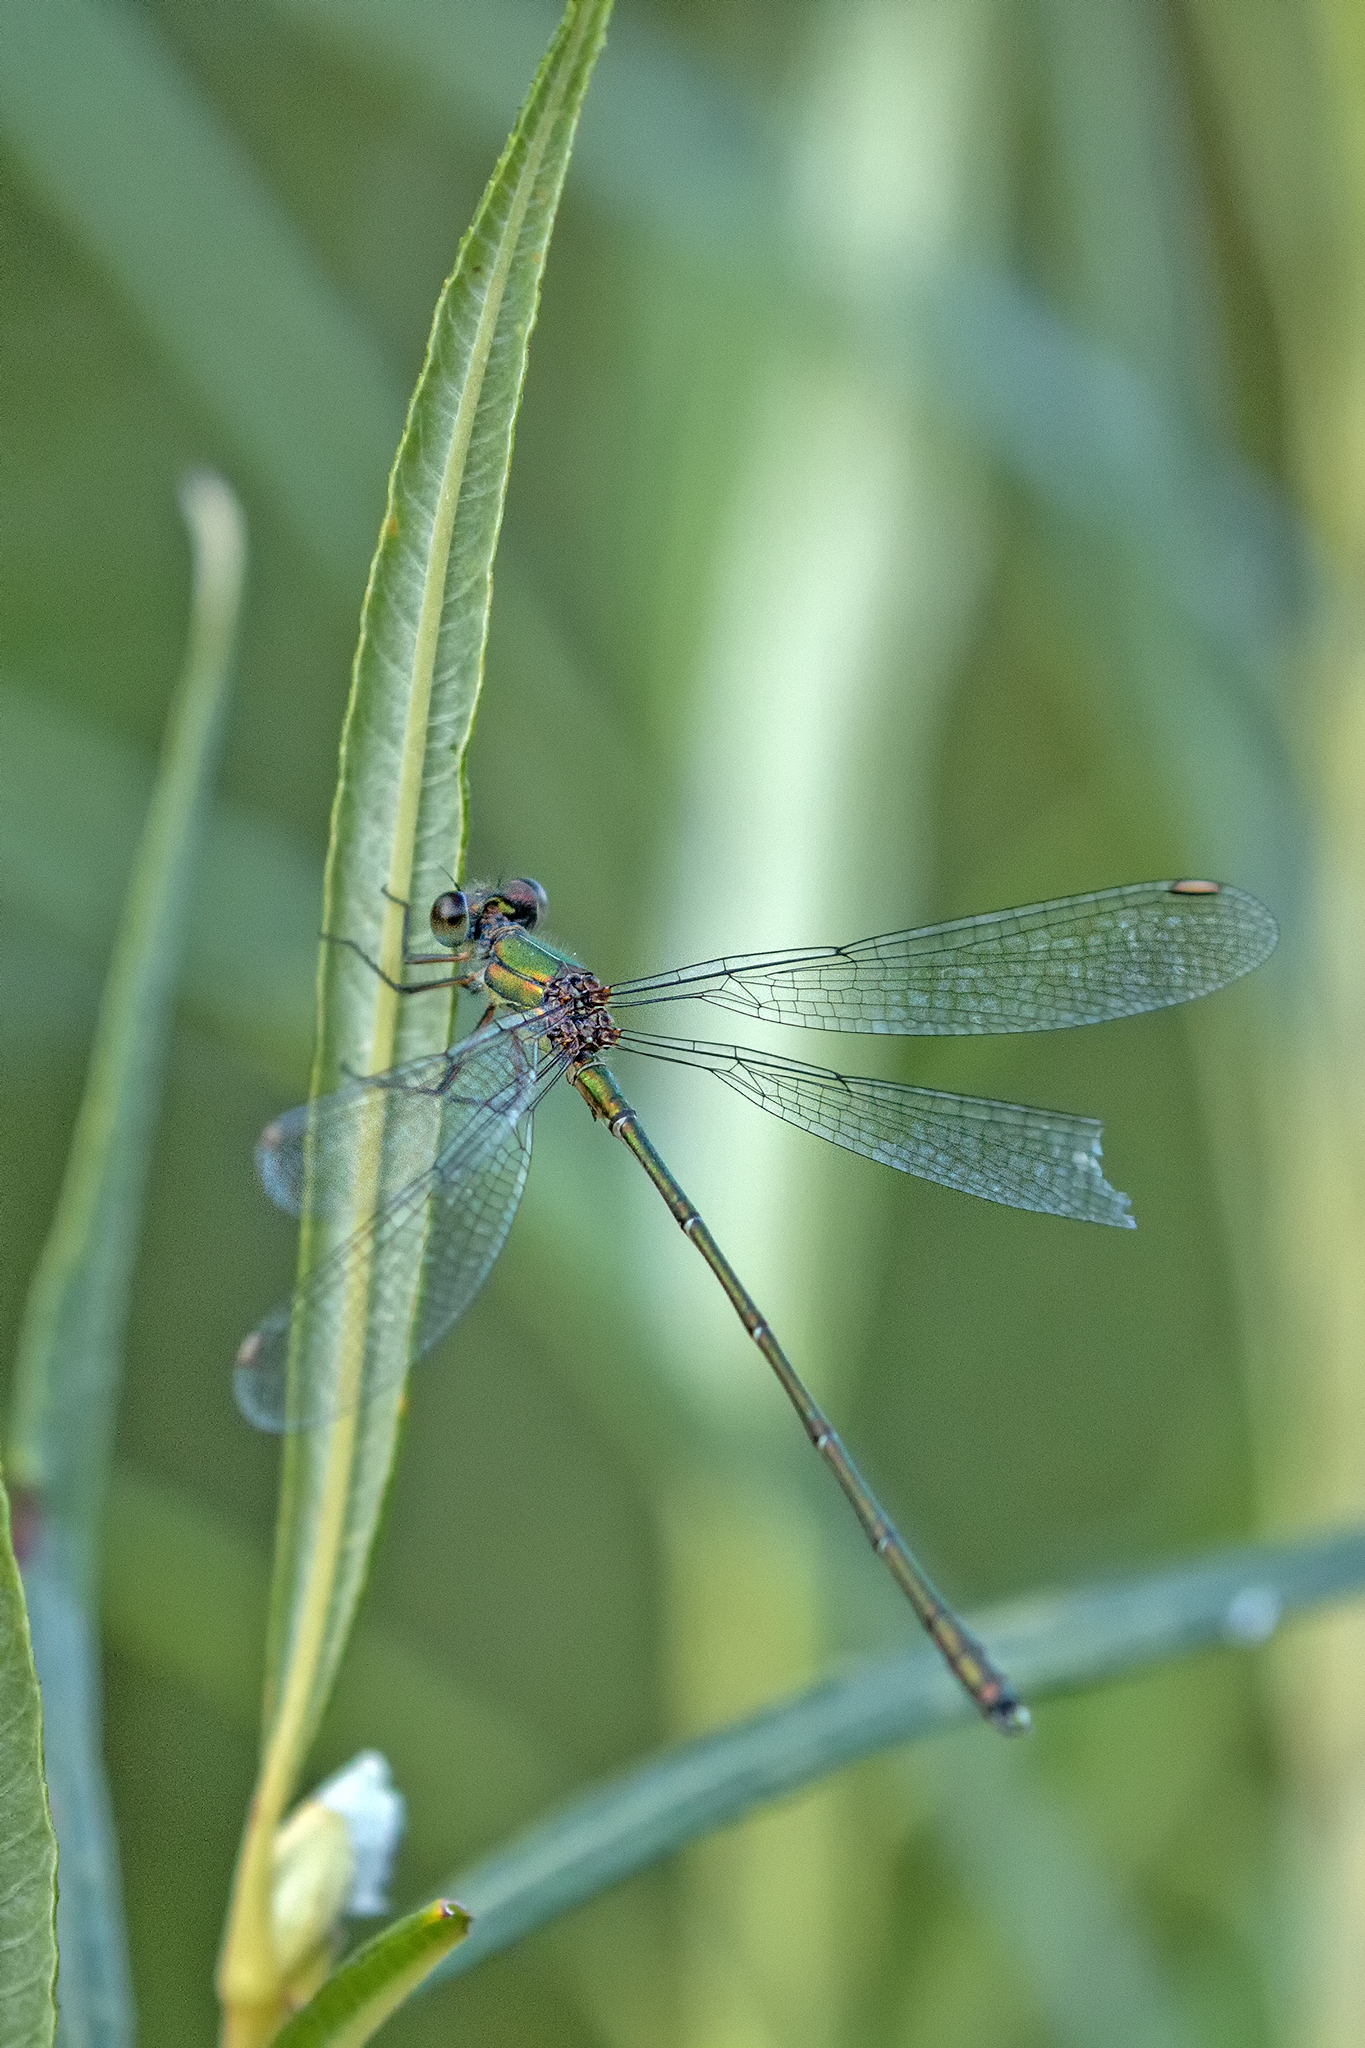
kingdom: Animalia
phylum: Arthropoda
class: Insecta
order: Odonata
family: Lestidae
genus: Chalcolestes
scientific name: Chalcolestes viridis
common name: Green emerald damselfly
